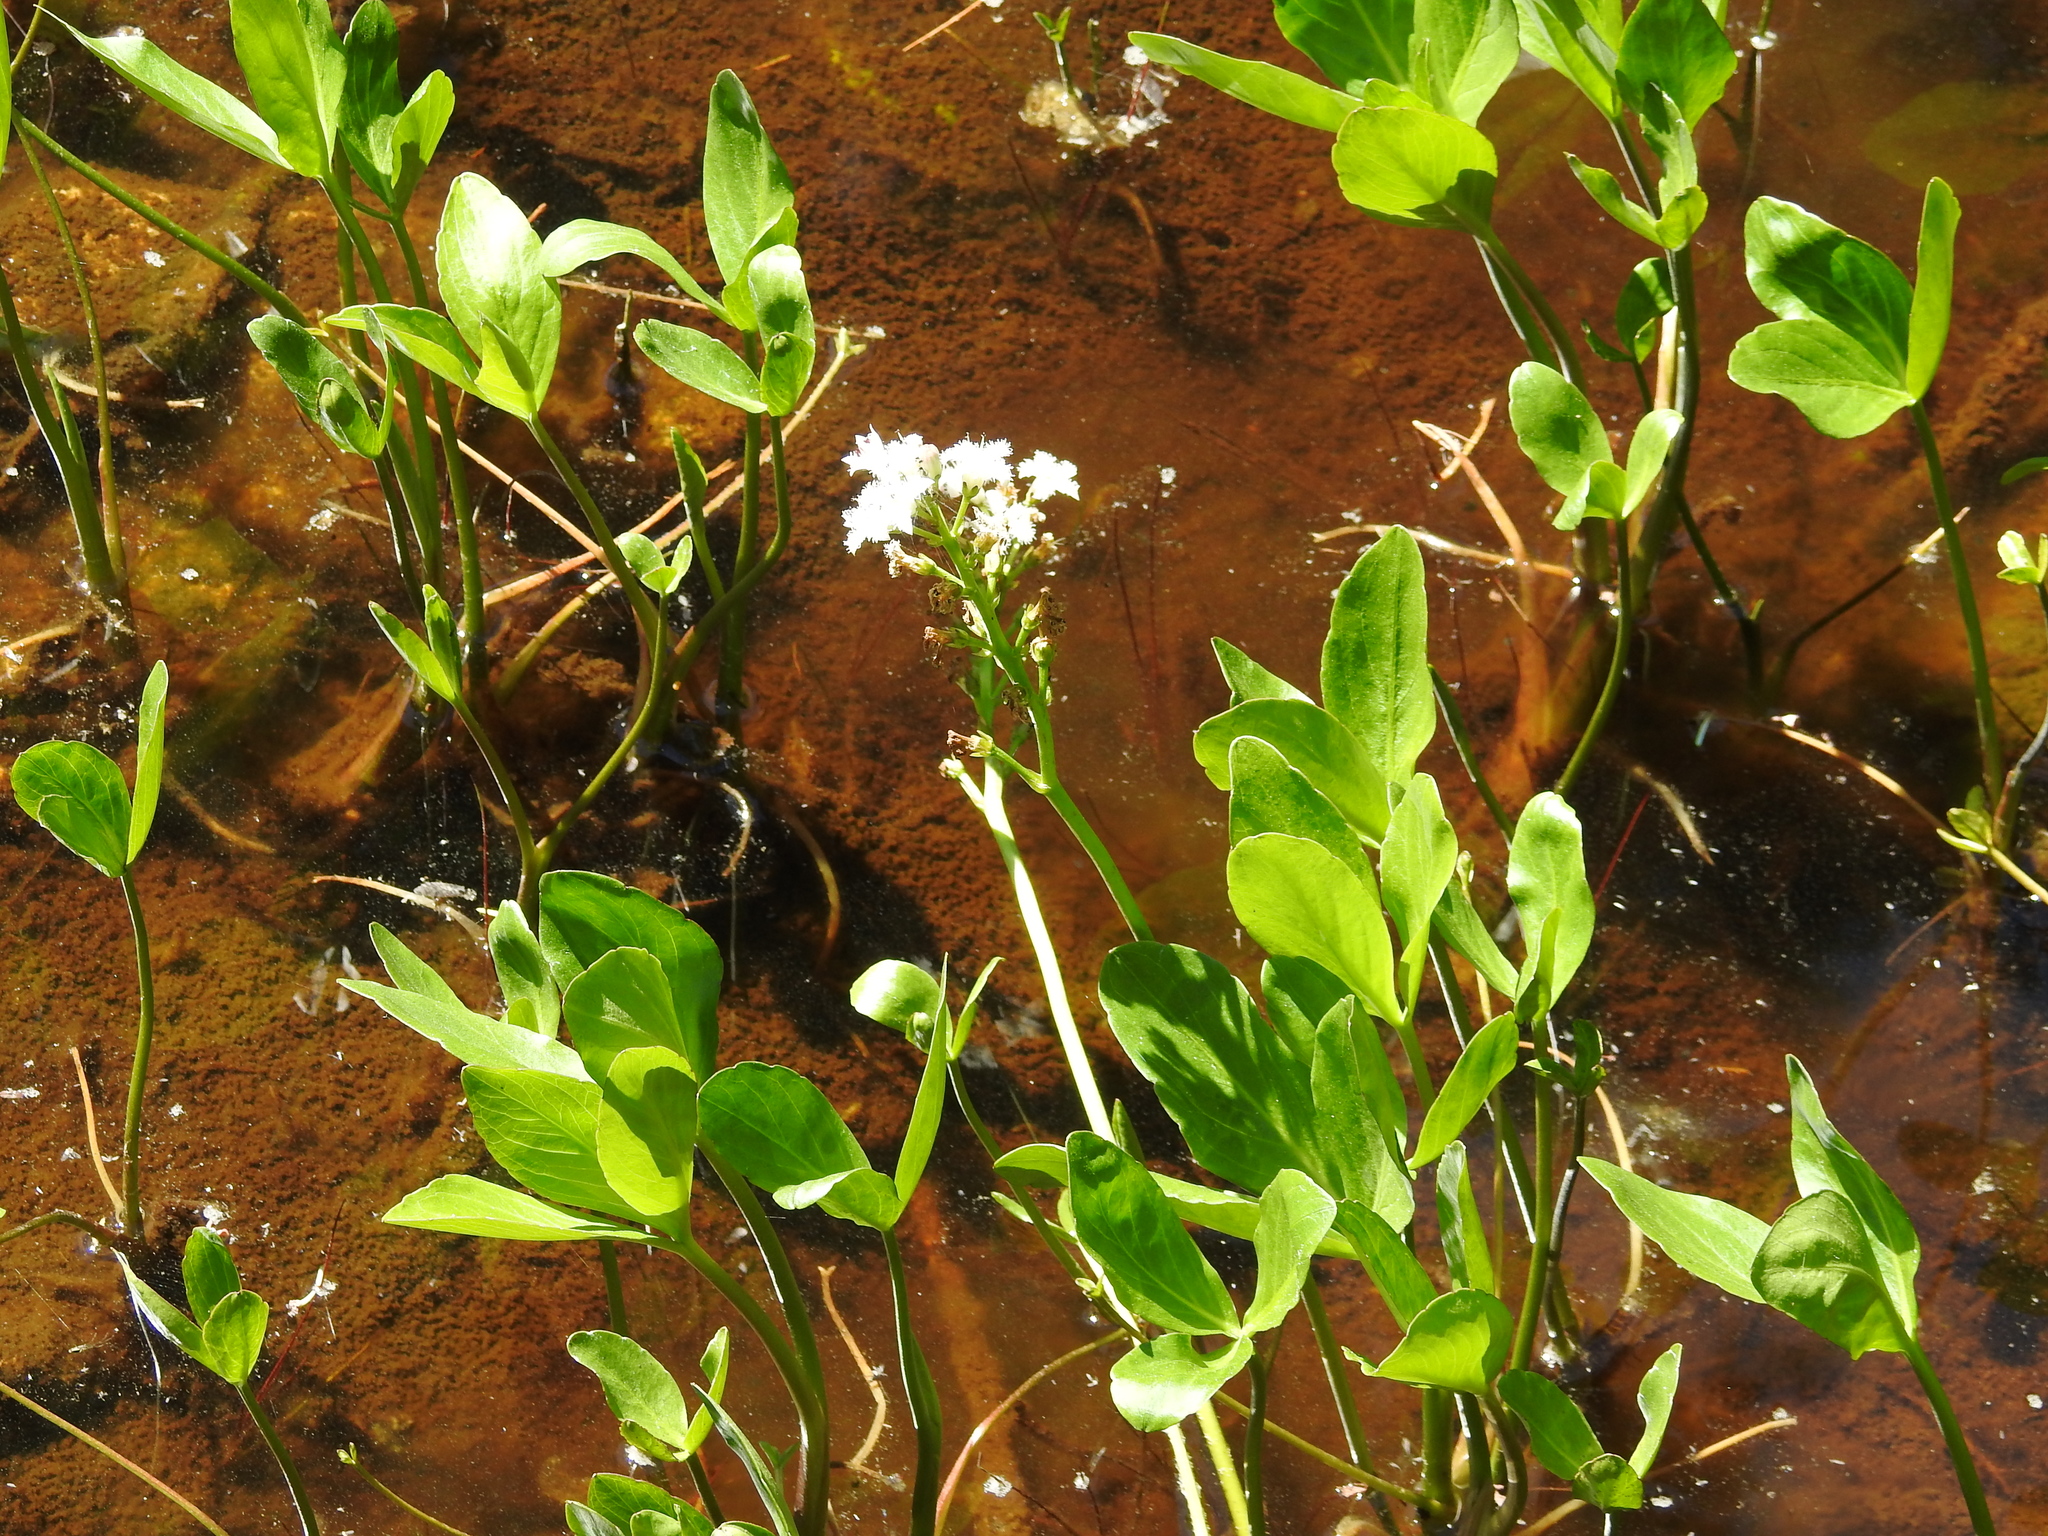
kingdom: Plantae
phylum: Tracheophyta
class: Magnoliopsida
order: Asterales
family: Menyanthaceae
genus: Menyanthes
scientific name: Menyanthes trifoliata
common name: Bogbean
